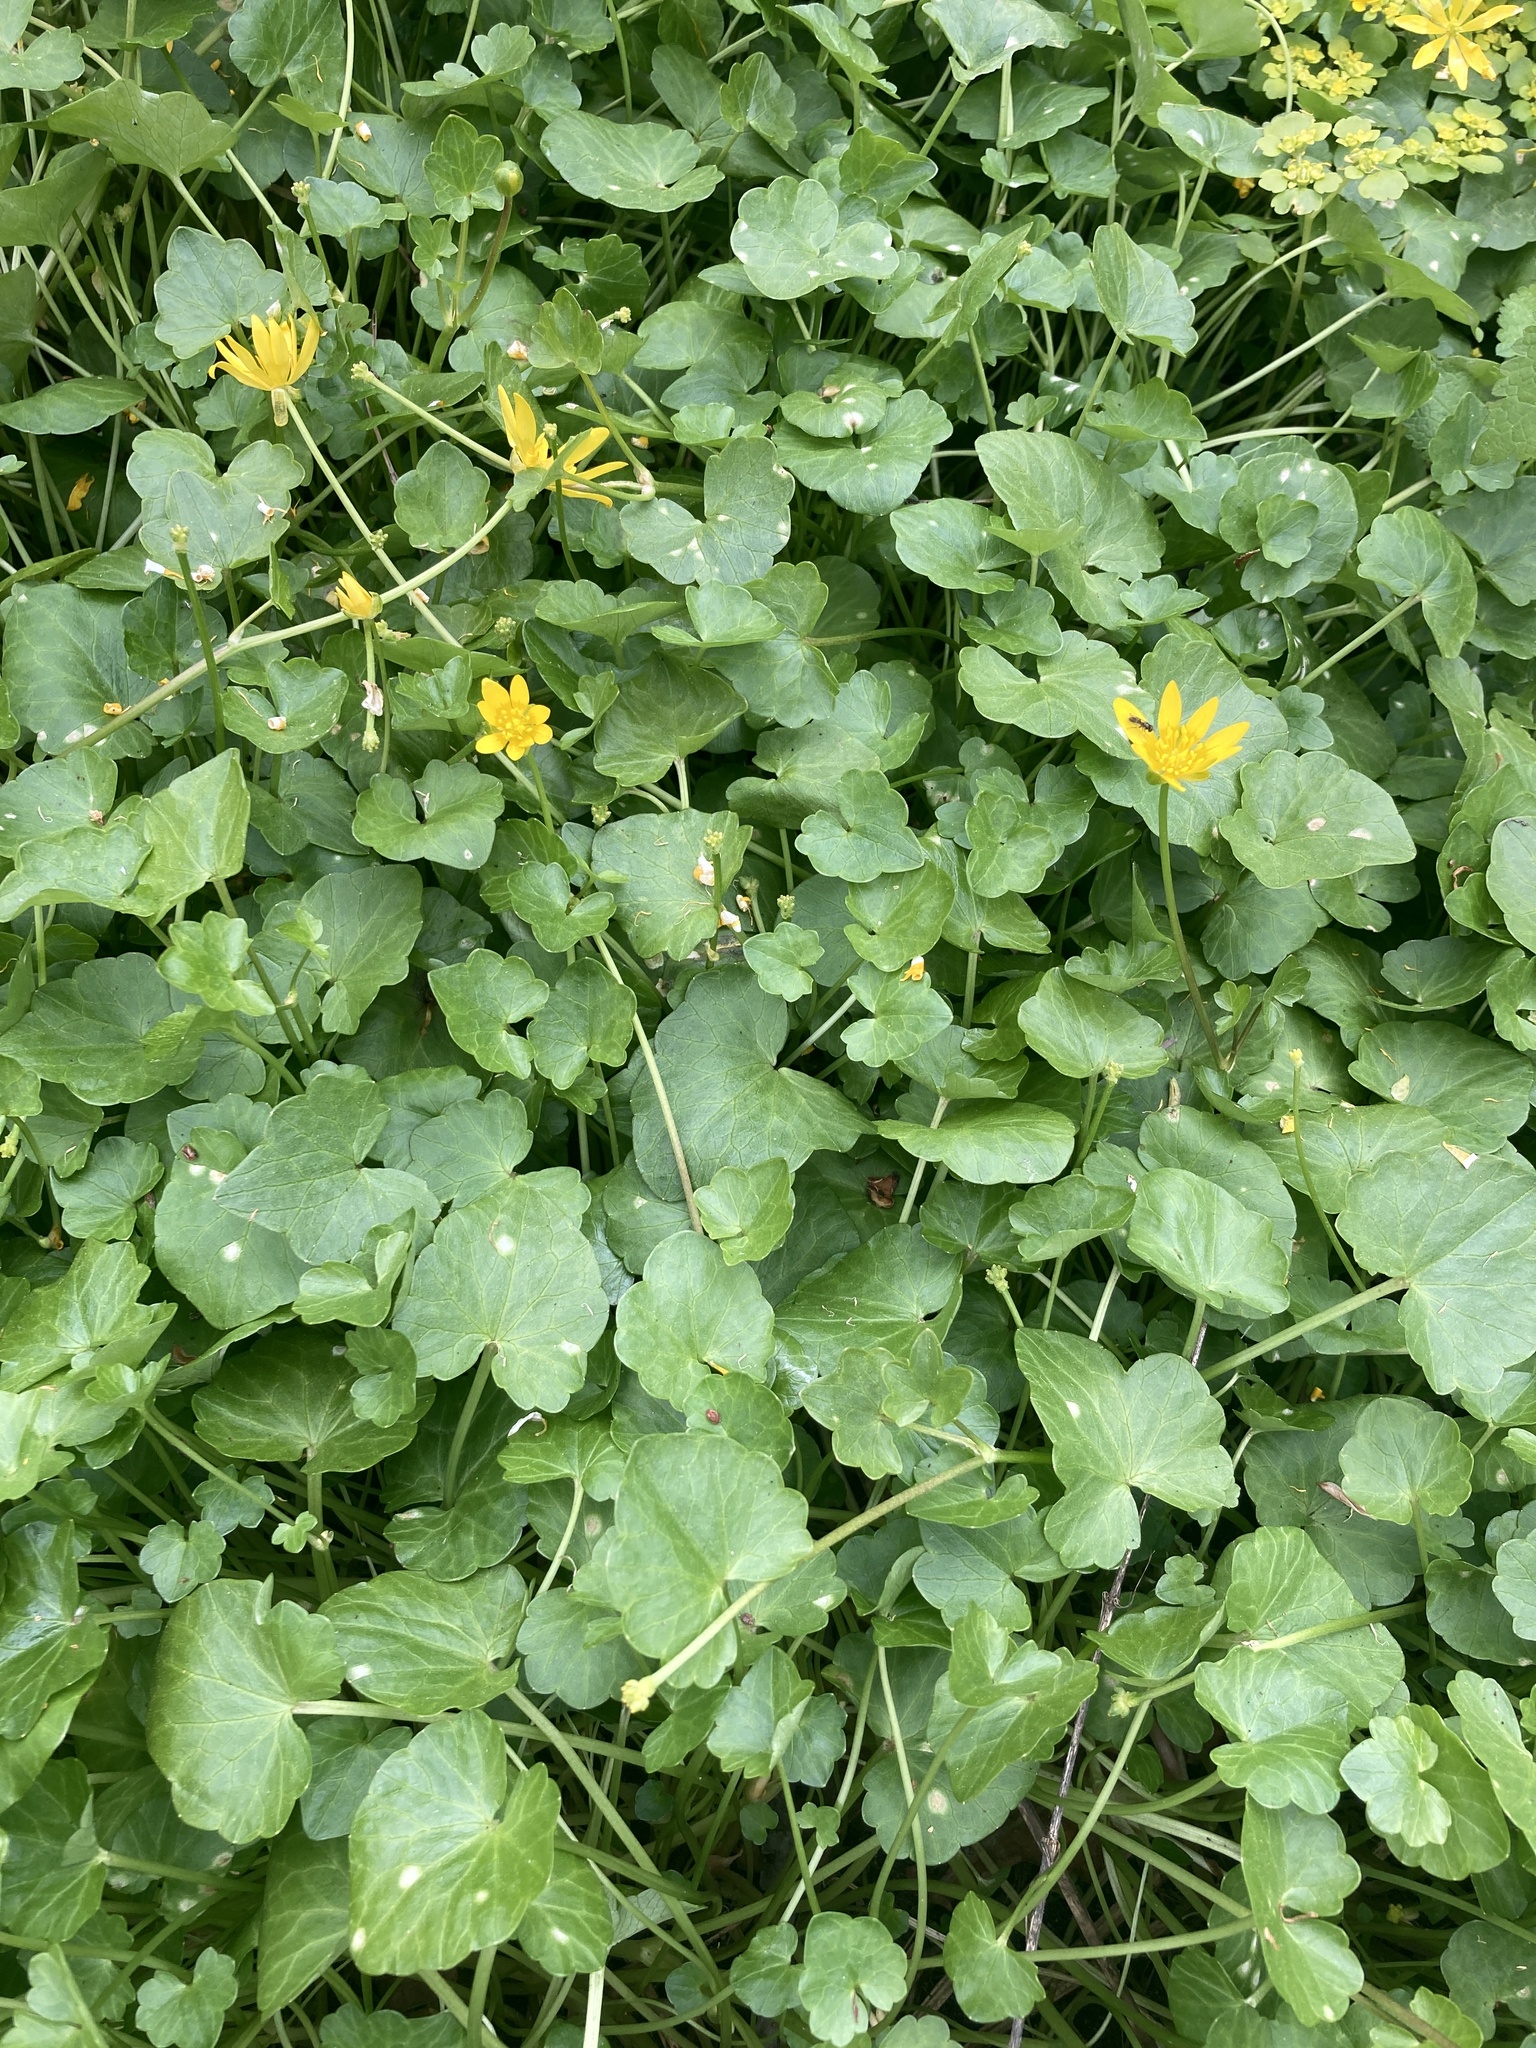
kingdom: Plantae
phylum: Tracheophyta
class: Magnoliopsida
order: Ranunculales
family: Ranunculaceae
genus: Ficaria
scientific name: Ficaria verna
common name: Lesser celandine
